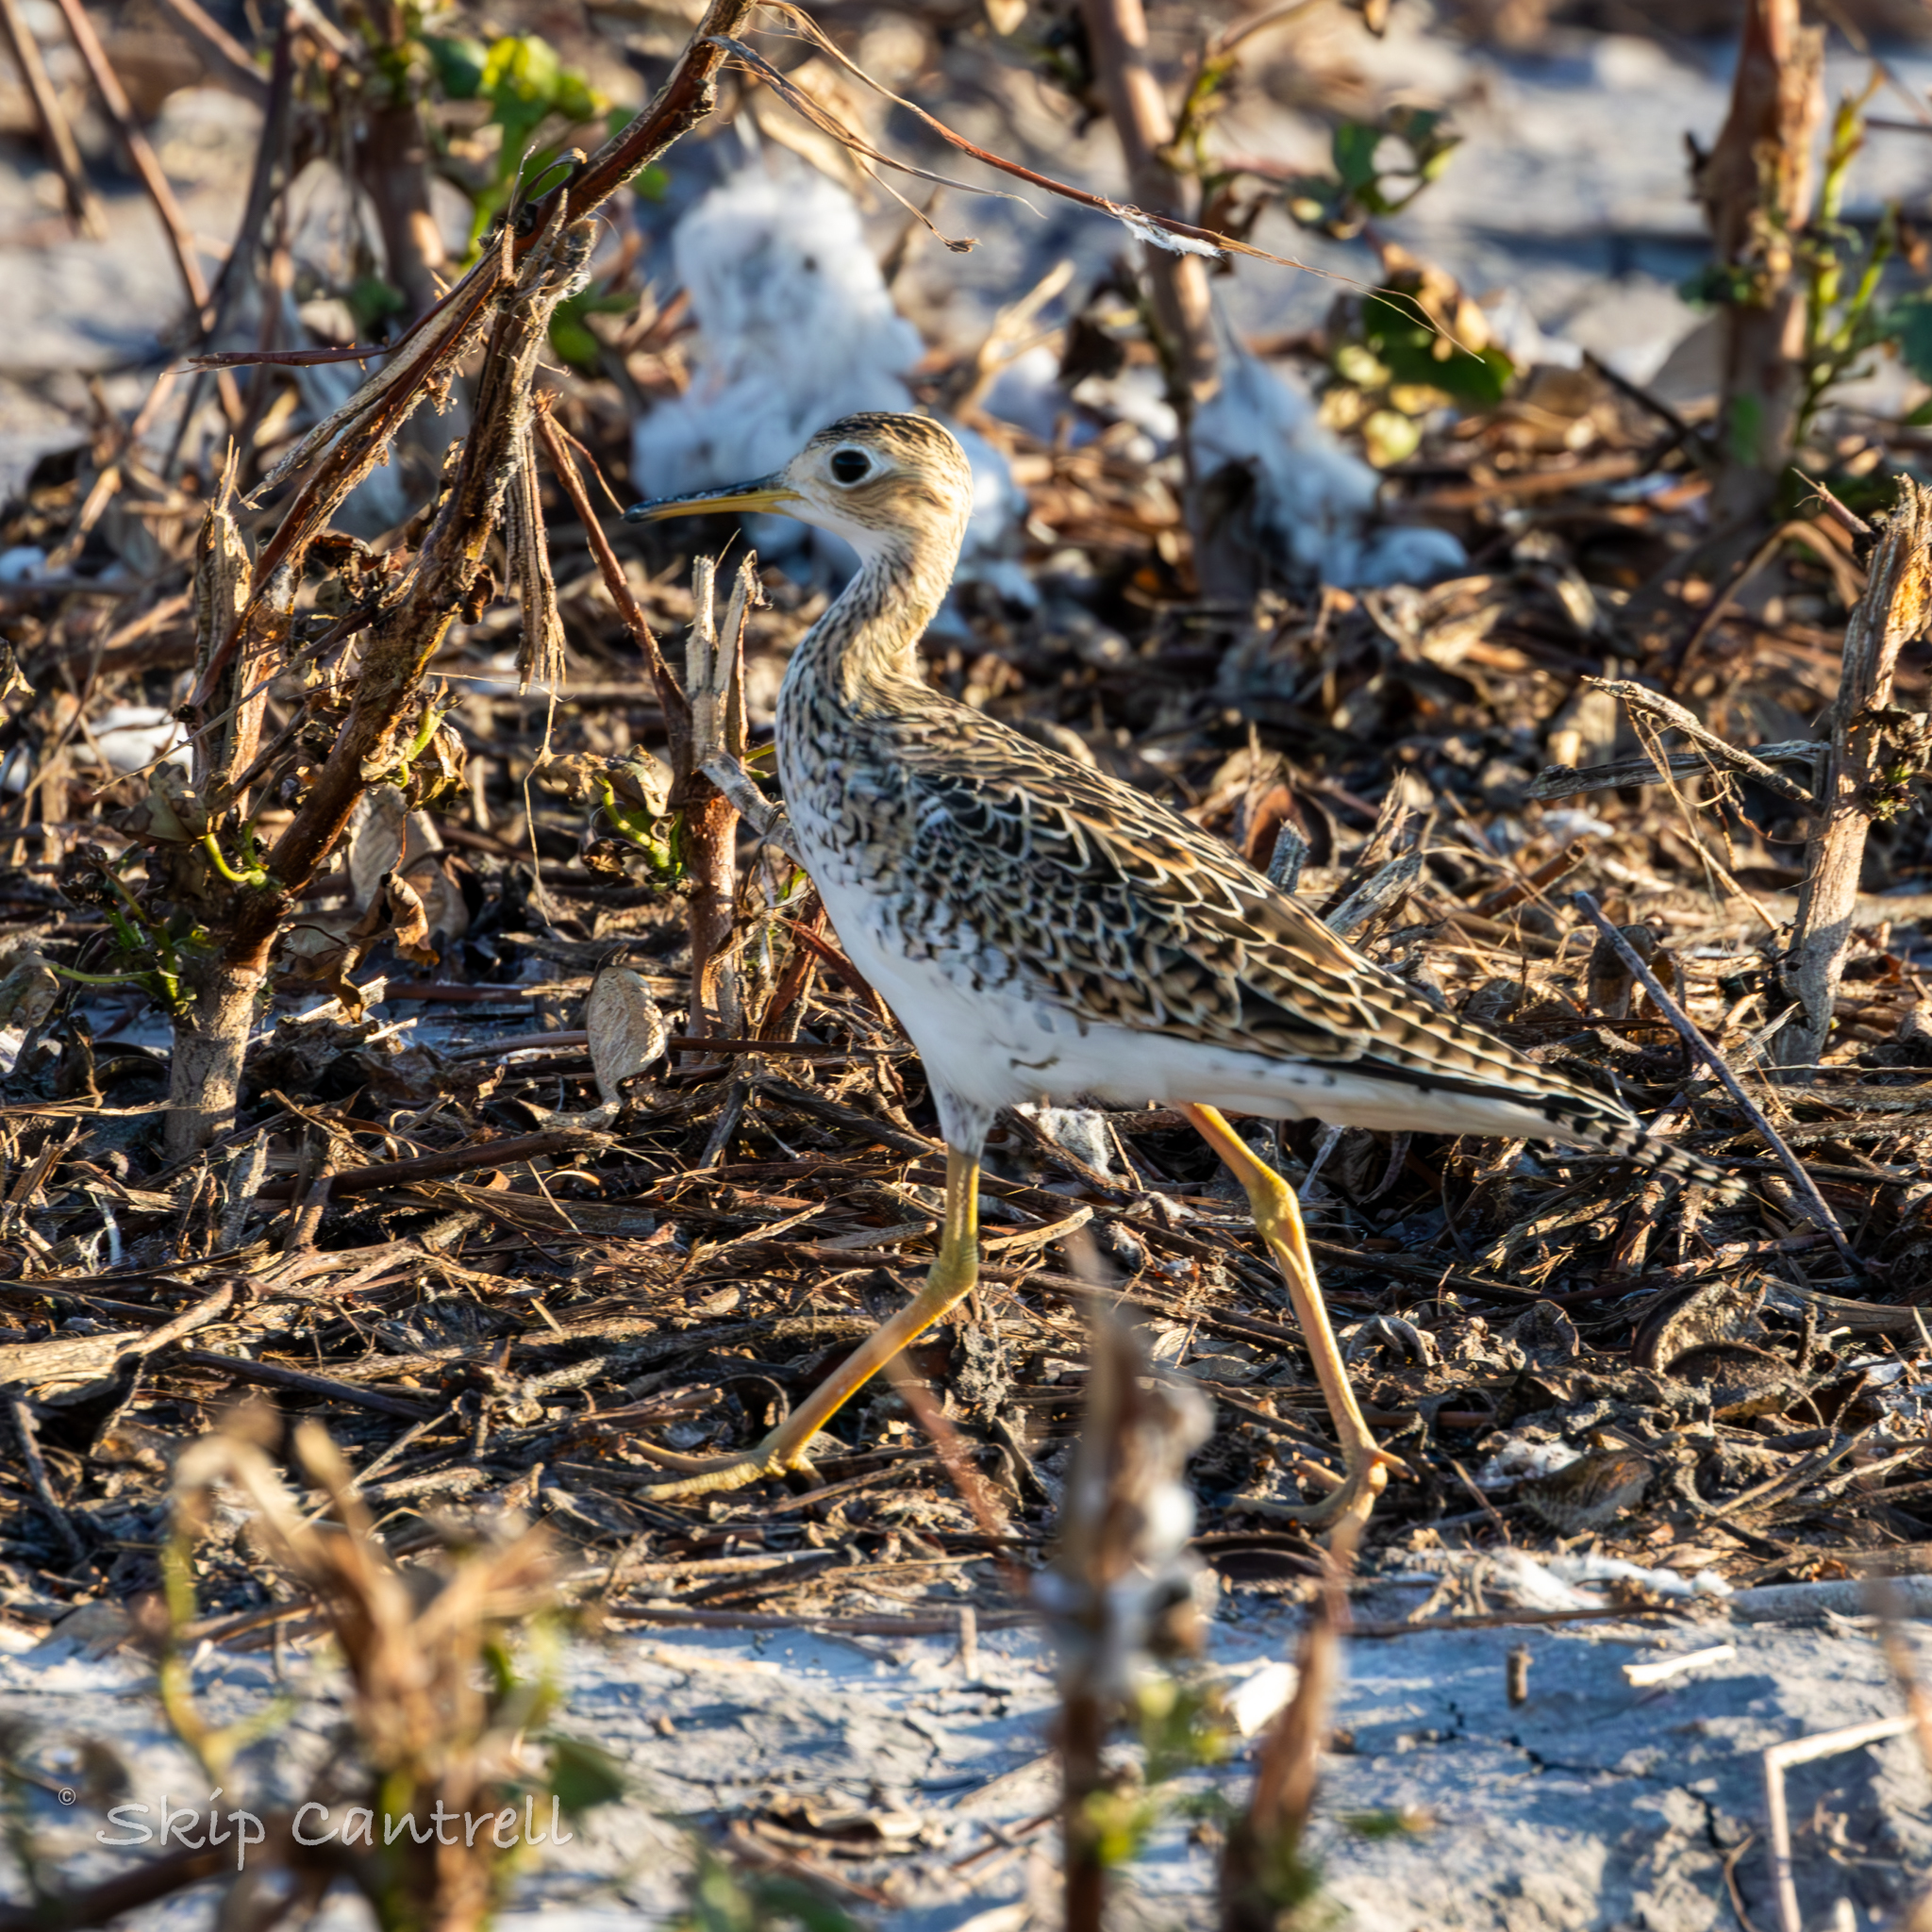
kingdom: Animalia
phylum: Chordata
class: Aves
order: Charadriiformes
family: Scolopacidae
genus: Bartramia
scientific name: Bartramia longicauda
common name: Upland sandpiper
